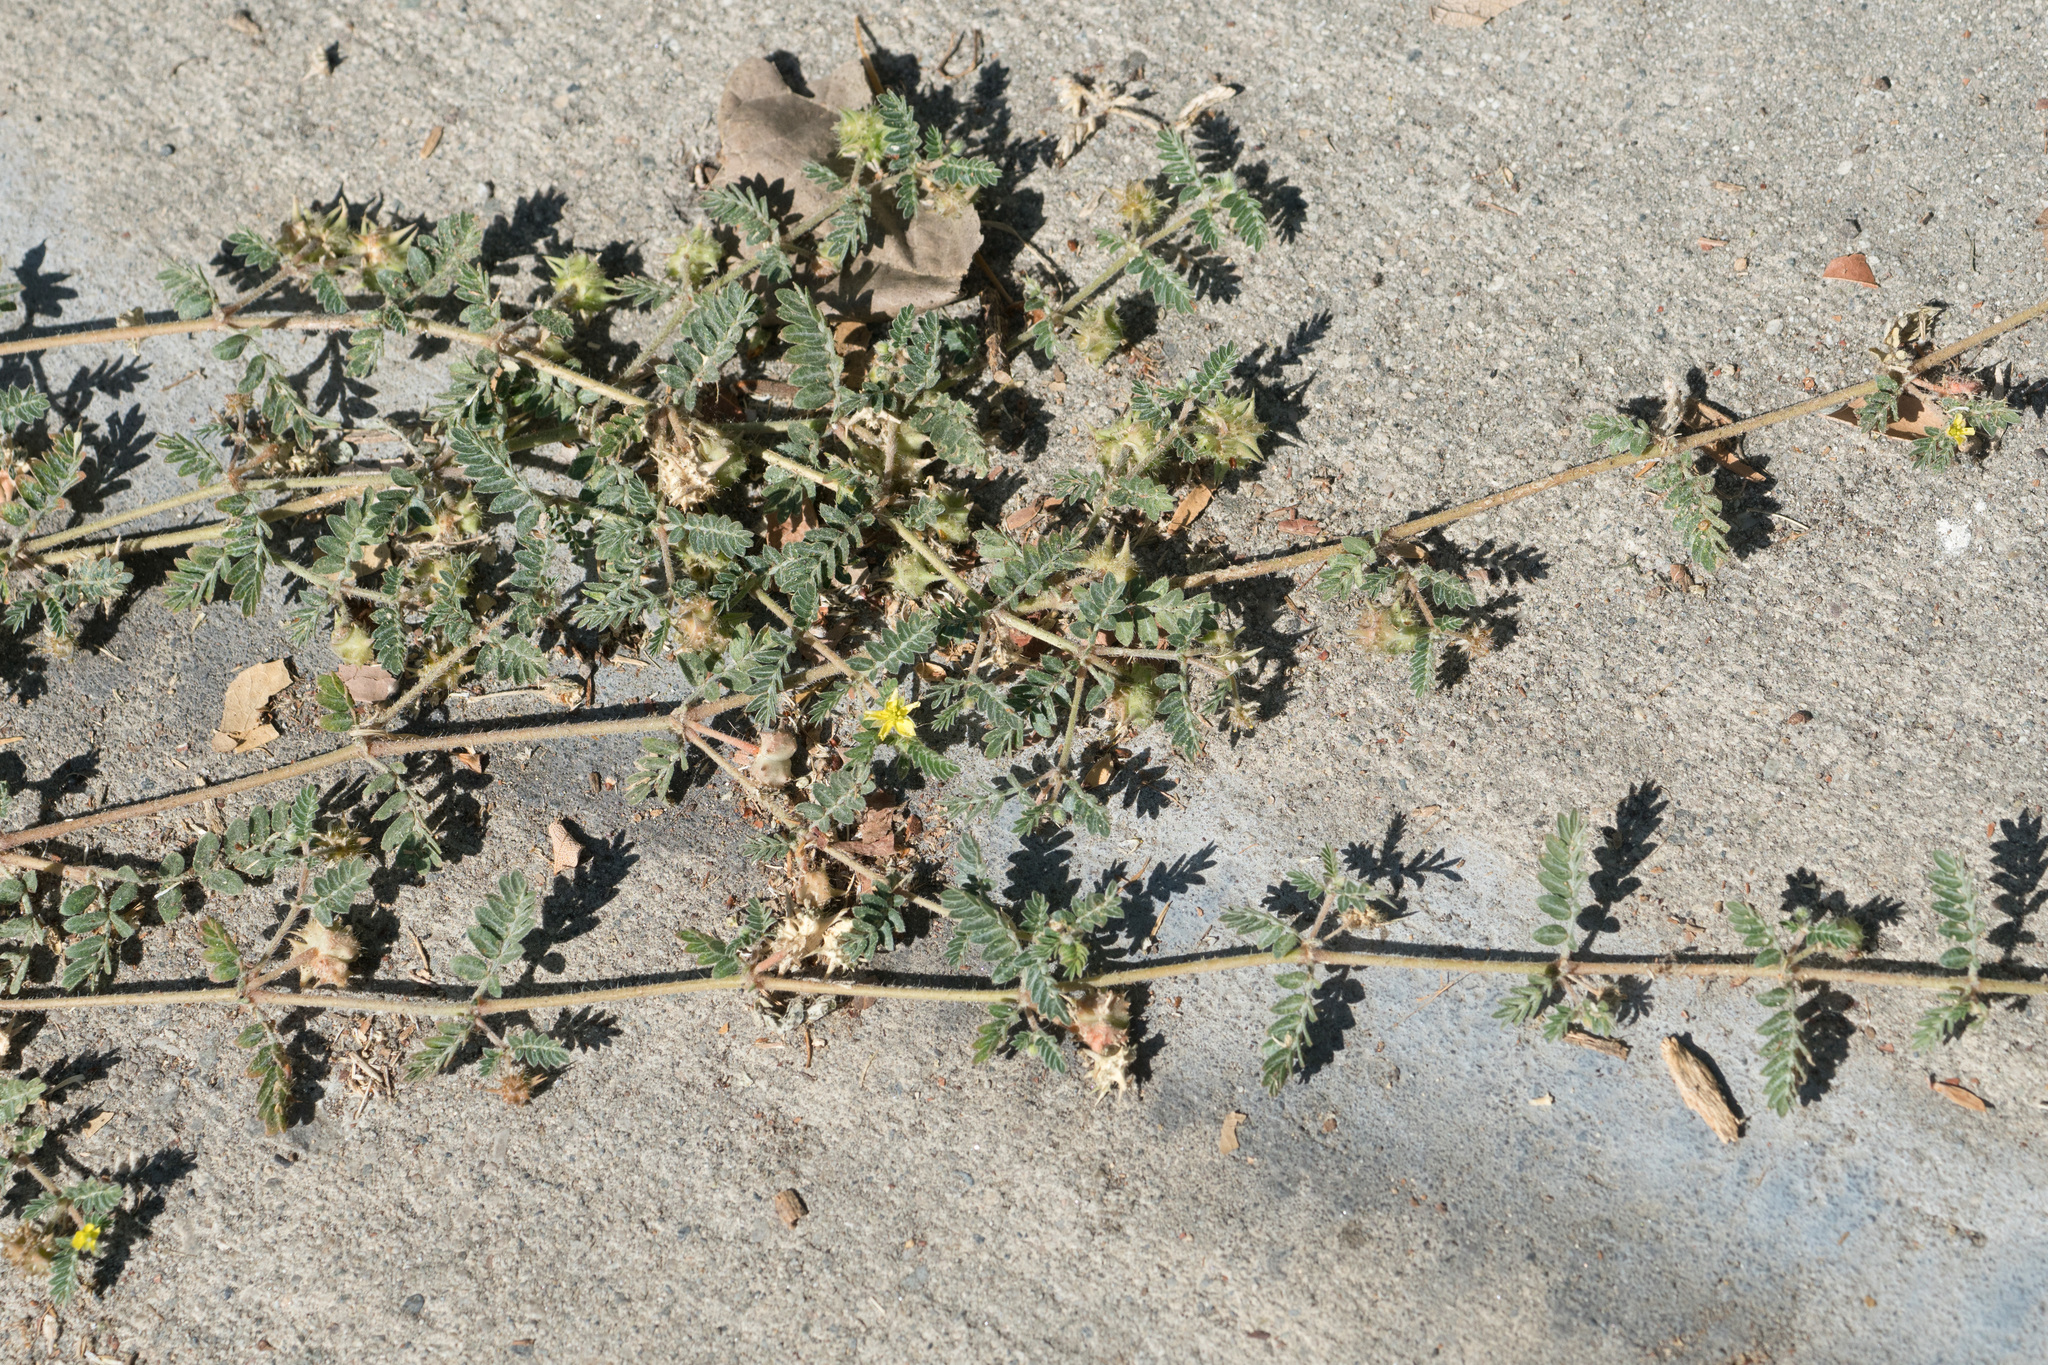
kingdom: Plantae
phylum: Tracheophyta
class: Magnoliopsida
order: Zygophyllales
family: Zygophyllaceae
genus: Tribulus
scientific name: Tribulus terrestris
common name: Puncturevine
